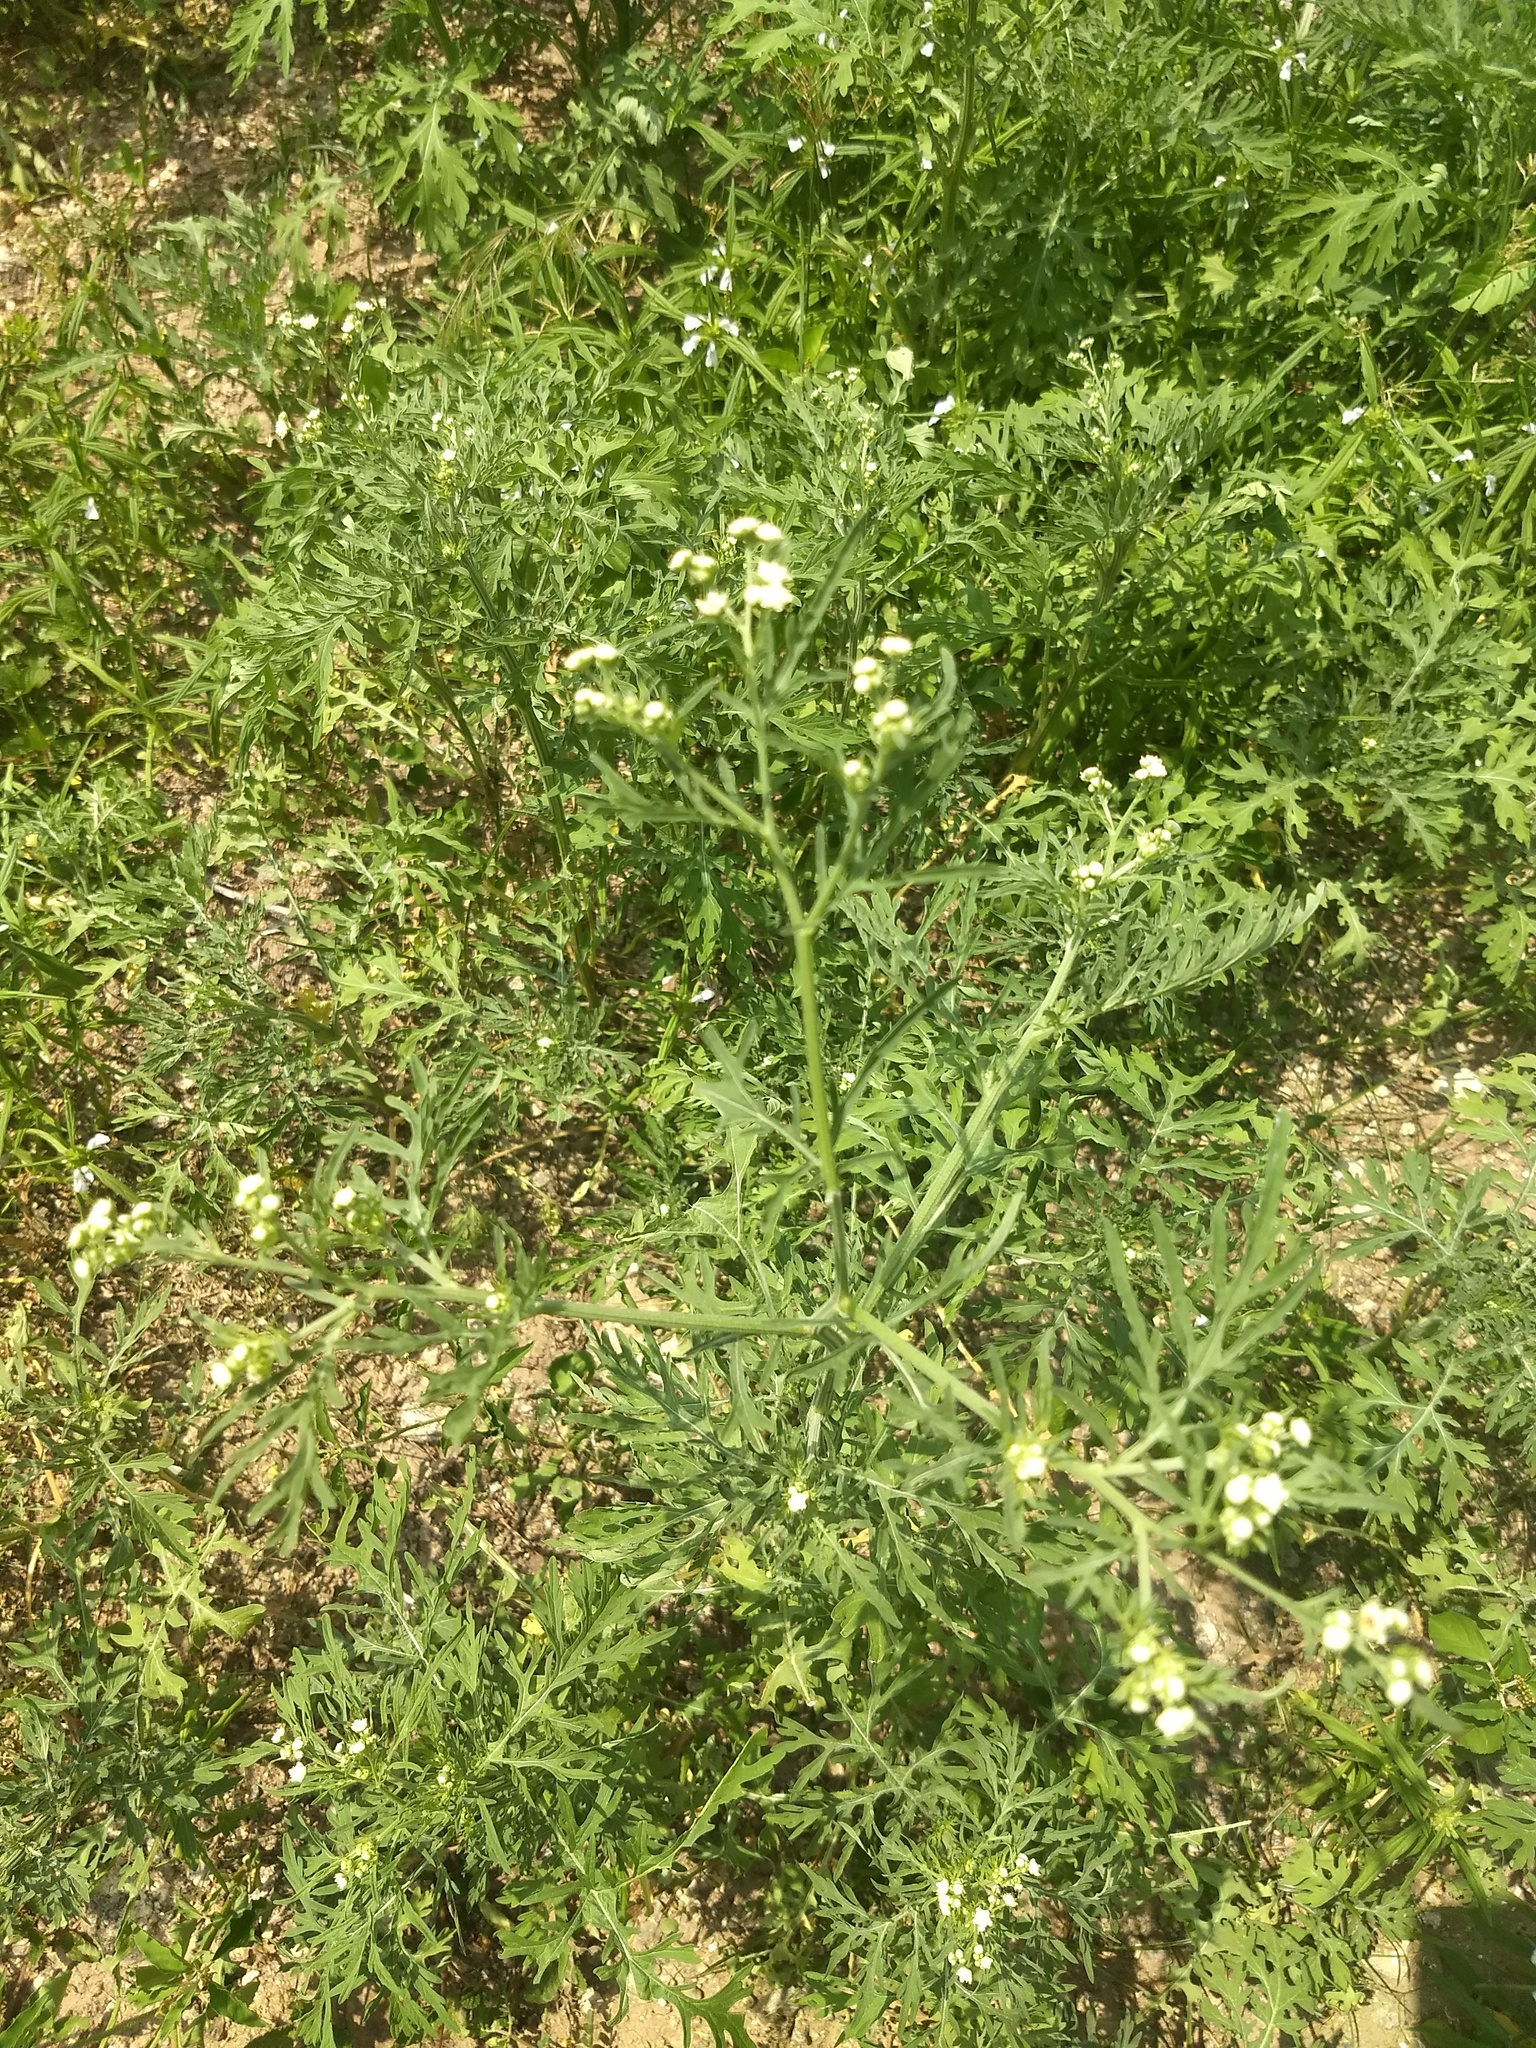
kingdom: Plantae
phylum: Tracheophyta
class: Magnoliopsida
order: Asterales
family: Asteraceae
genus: Parthenium
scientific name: Parthenium hysterophorus
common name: Santa maria feverfew
